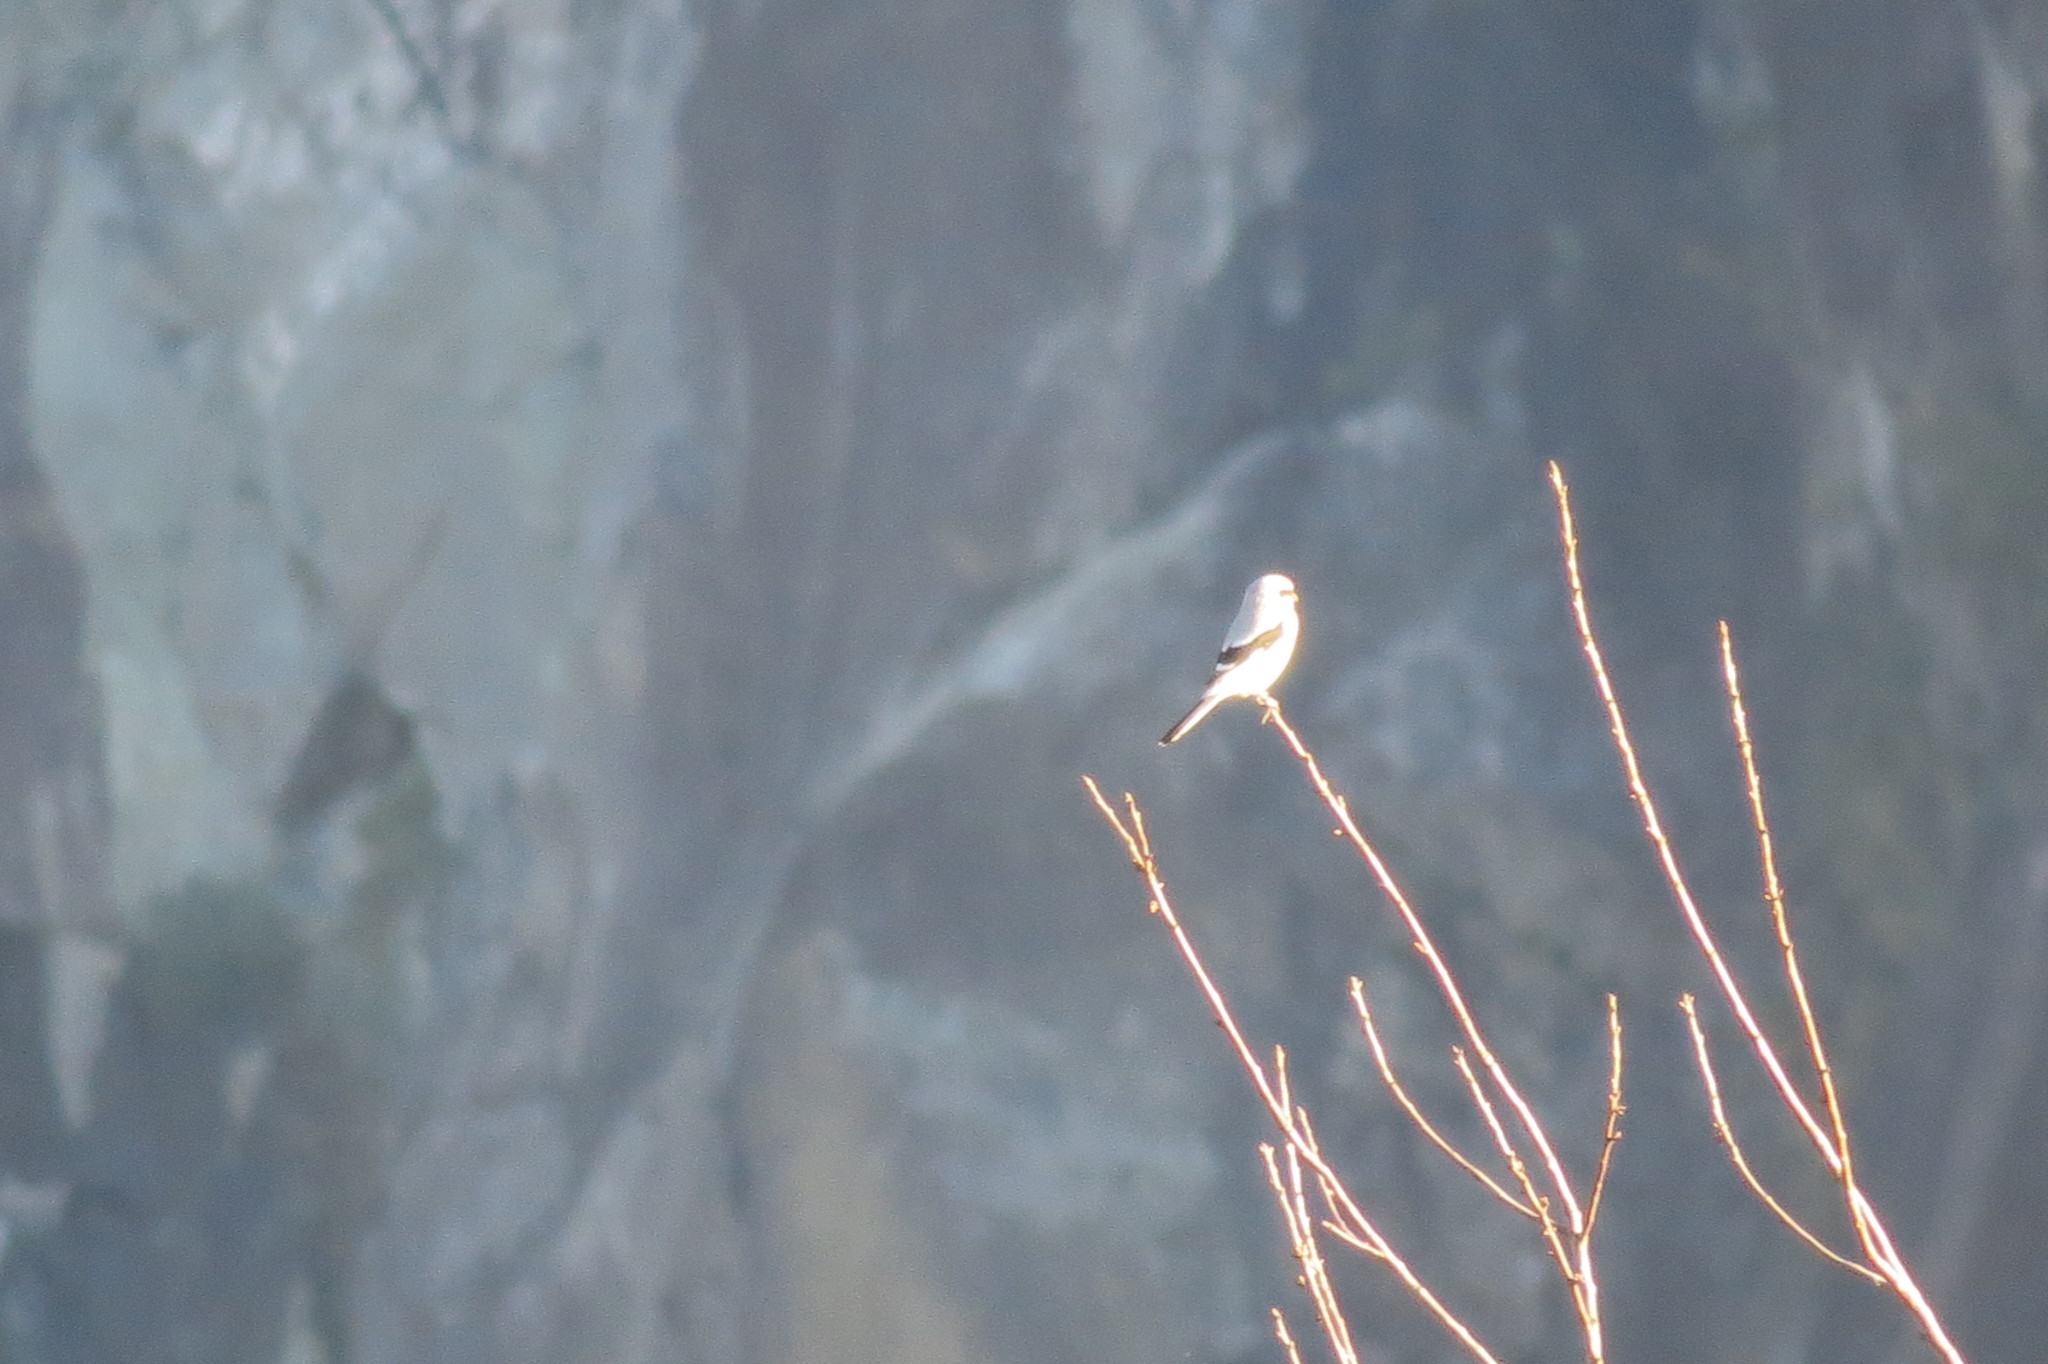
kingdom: Animalia
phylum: Chordata
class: Aves
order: Passeriformes
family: Laniidae
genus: Lanius
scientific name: Lanius excubitor
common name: Great grey shrike
